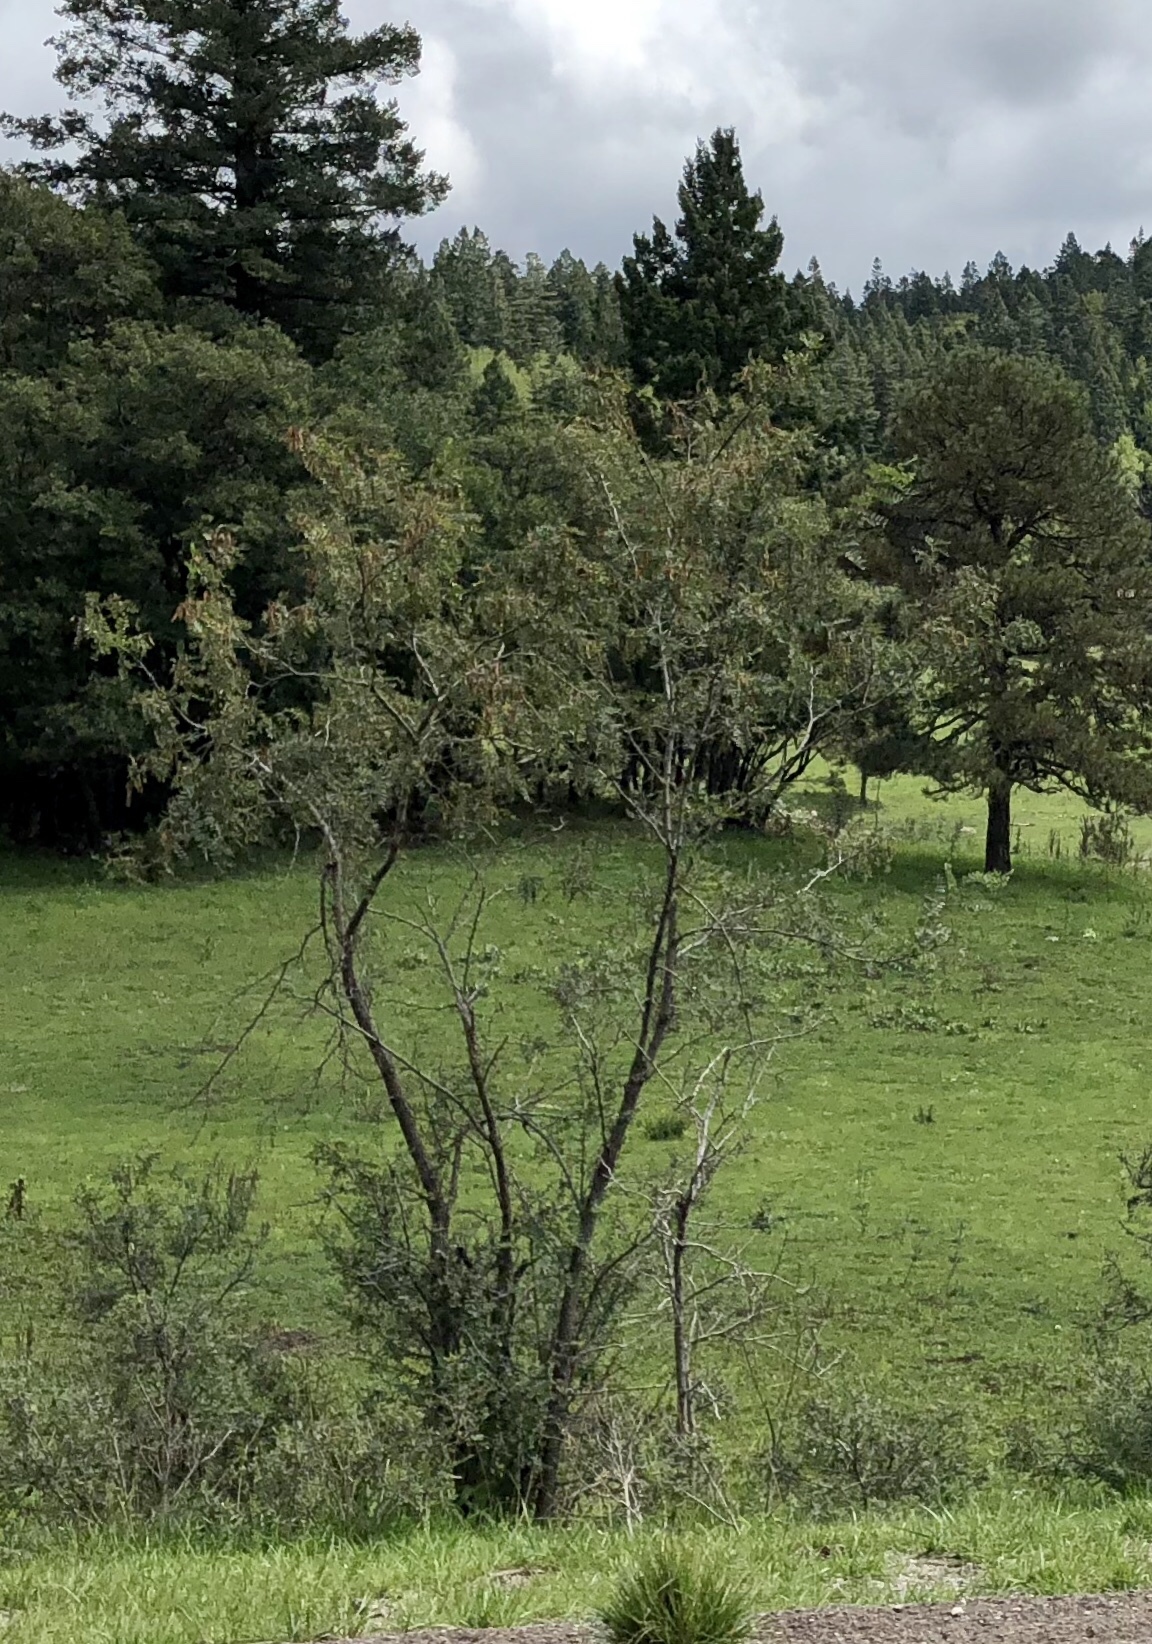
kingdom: Plantae
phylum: Tracheophyta
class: Magnoliopsida
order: Fabales
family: Fabaceae
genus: Robinia
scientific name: Robinia neomexicana
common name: New mexico locust
